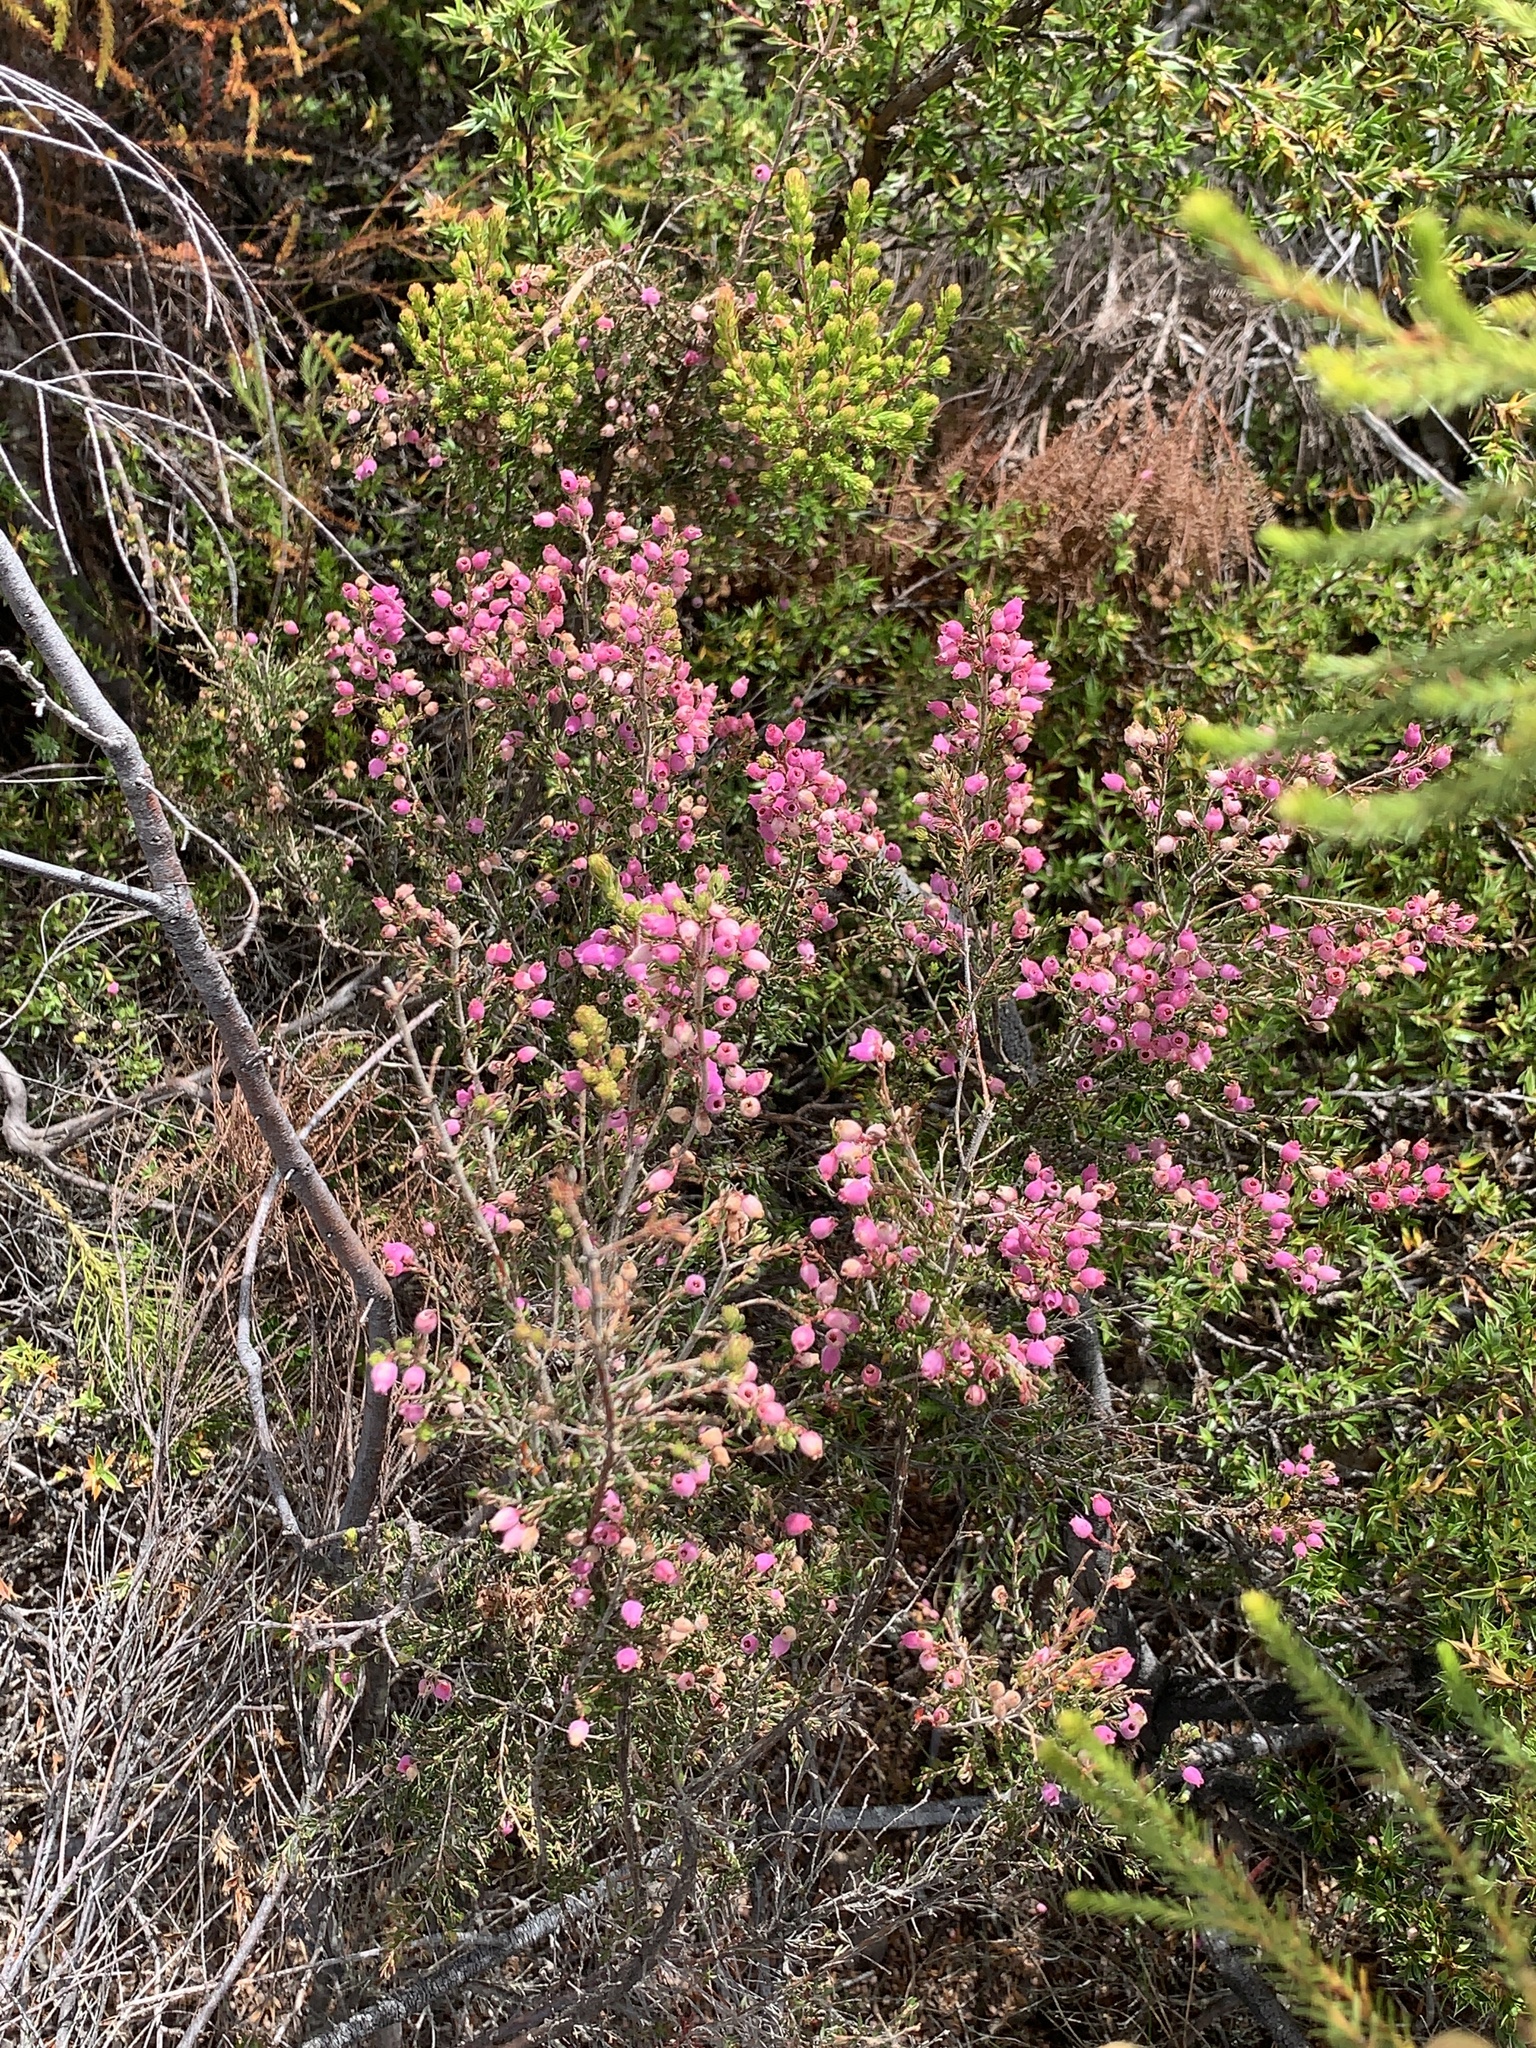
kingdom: Plantae
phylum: Tracheophyta
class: Magnoliopsida
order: Ericales
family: Ericaceae
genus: Erica
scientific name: Erica hirtiflora
